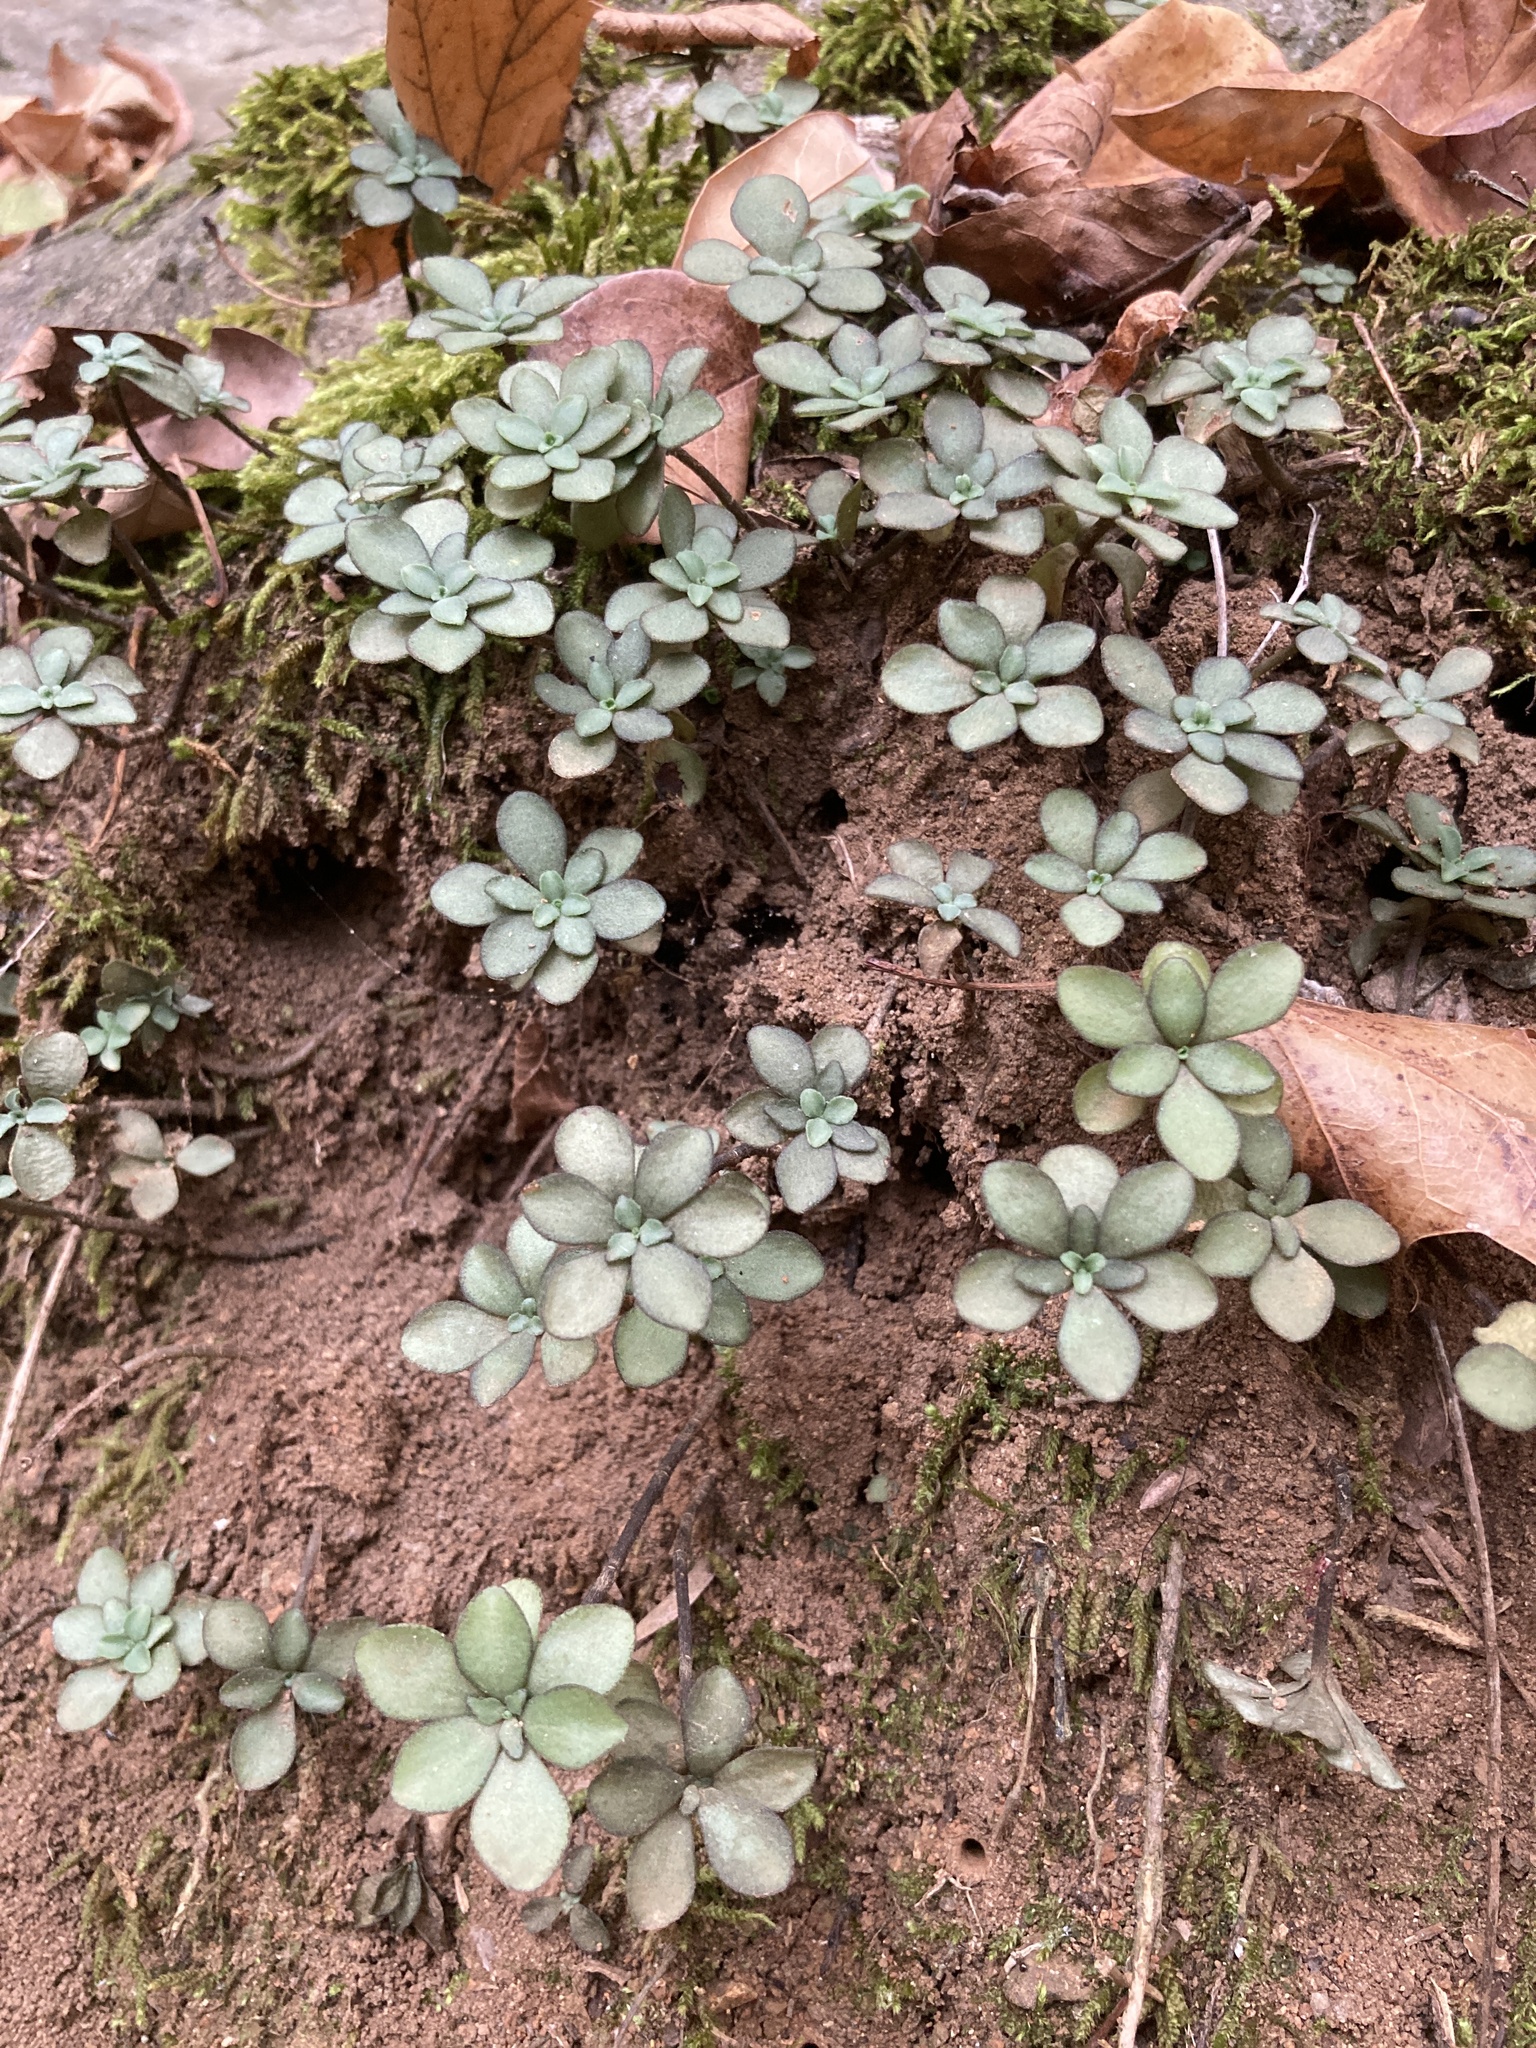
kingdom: Plantae
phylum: Tracheophyta
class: Magnoliopsida
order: Saxifragales
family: Crassulaceae
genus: Sedum
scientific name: Sedum ternatum
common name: Wild stonecrop
